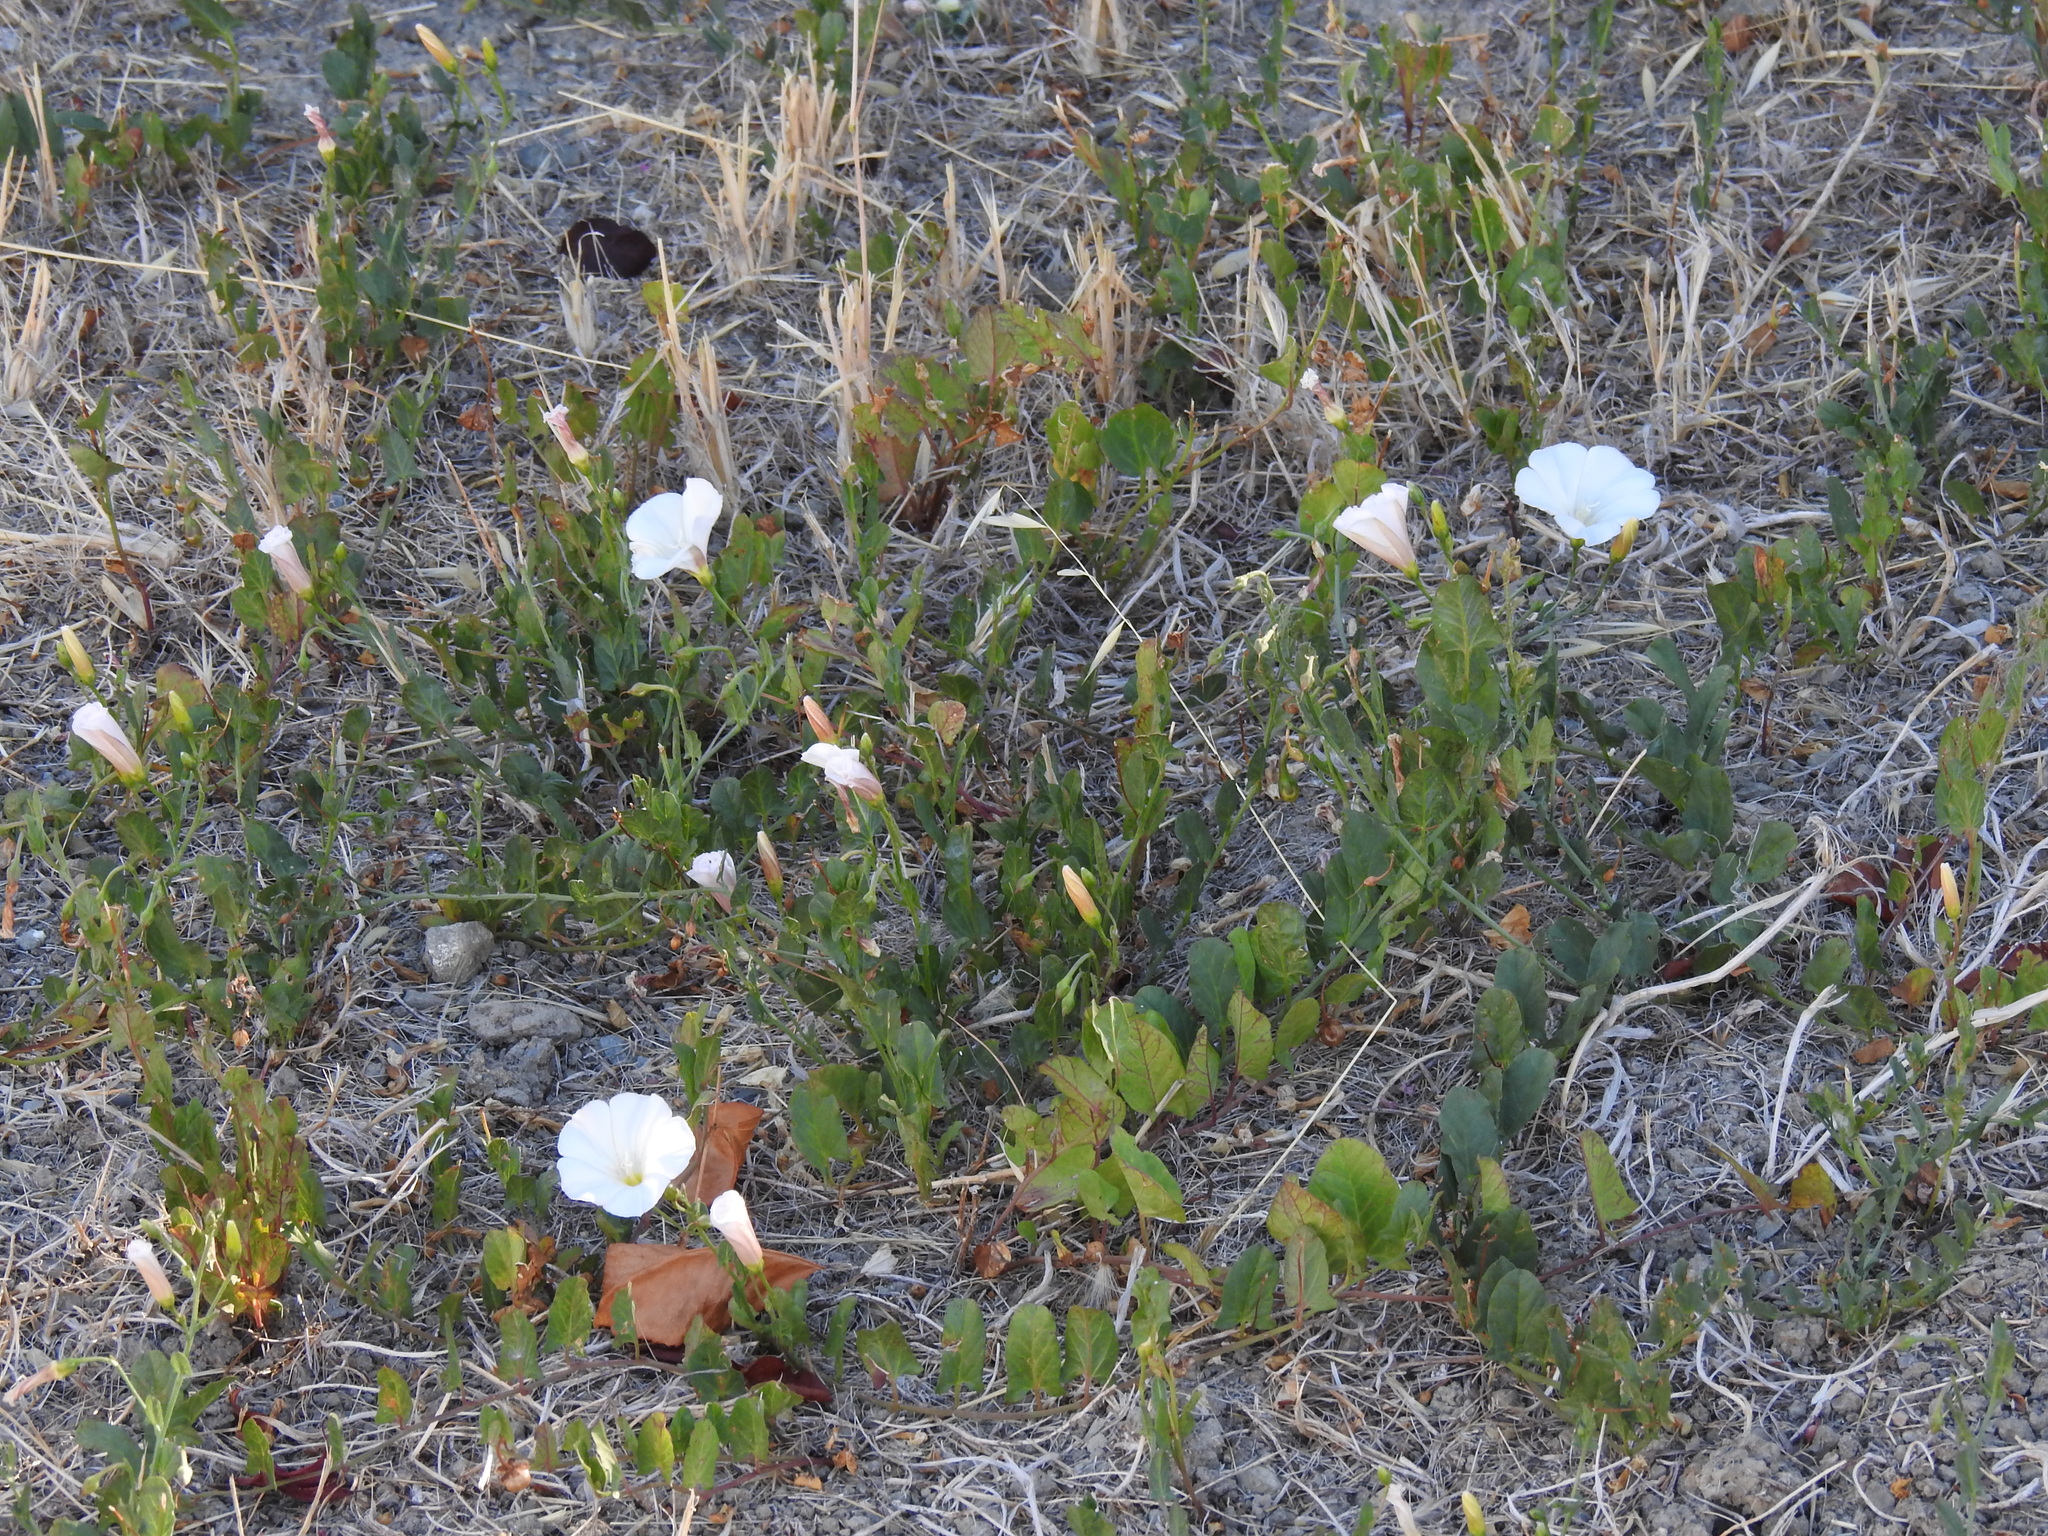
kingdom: Plantae
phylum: Tracheophyta
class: Magnoliopsida
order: Solanales
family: Convolvulaceae
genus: Convolvulus
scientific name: Convolvulus arvensis
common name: Field bindweed
